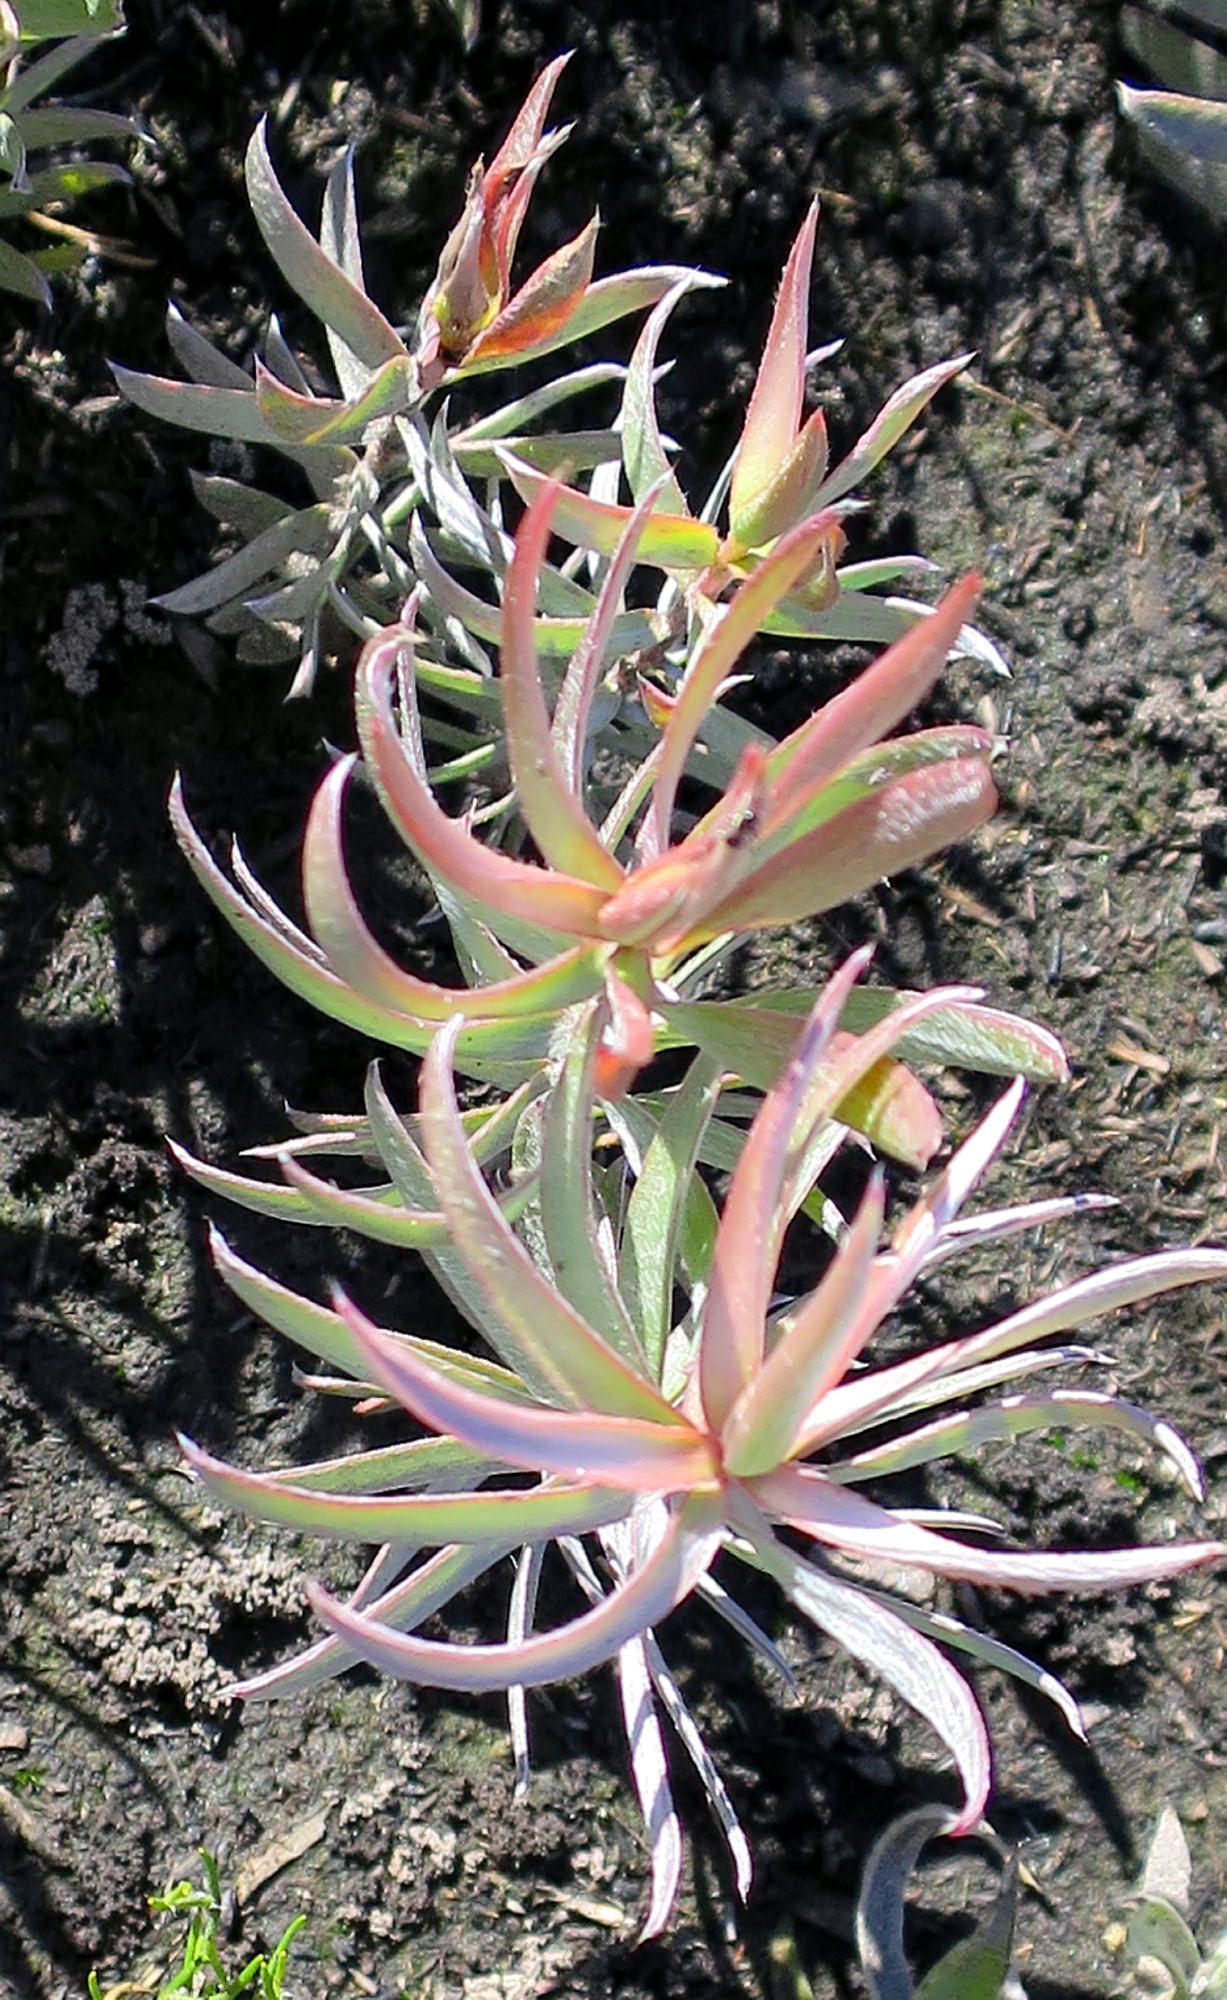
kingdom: Plantae
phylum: Tracheophyta
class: Magnoliopsida
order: Proteales
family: Proteaceae
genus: Leucadendron
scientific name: Leucadendron uliginosum
